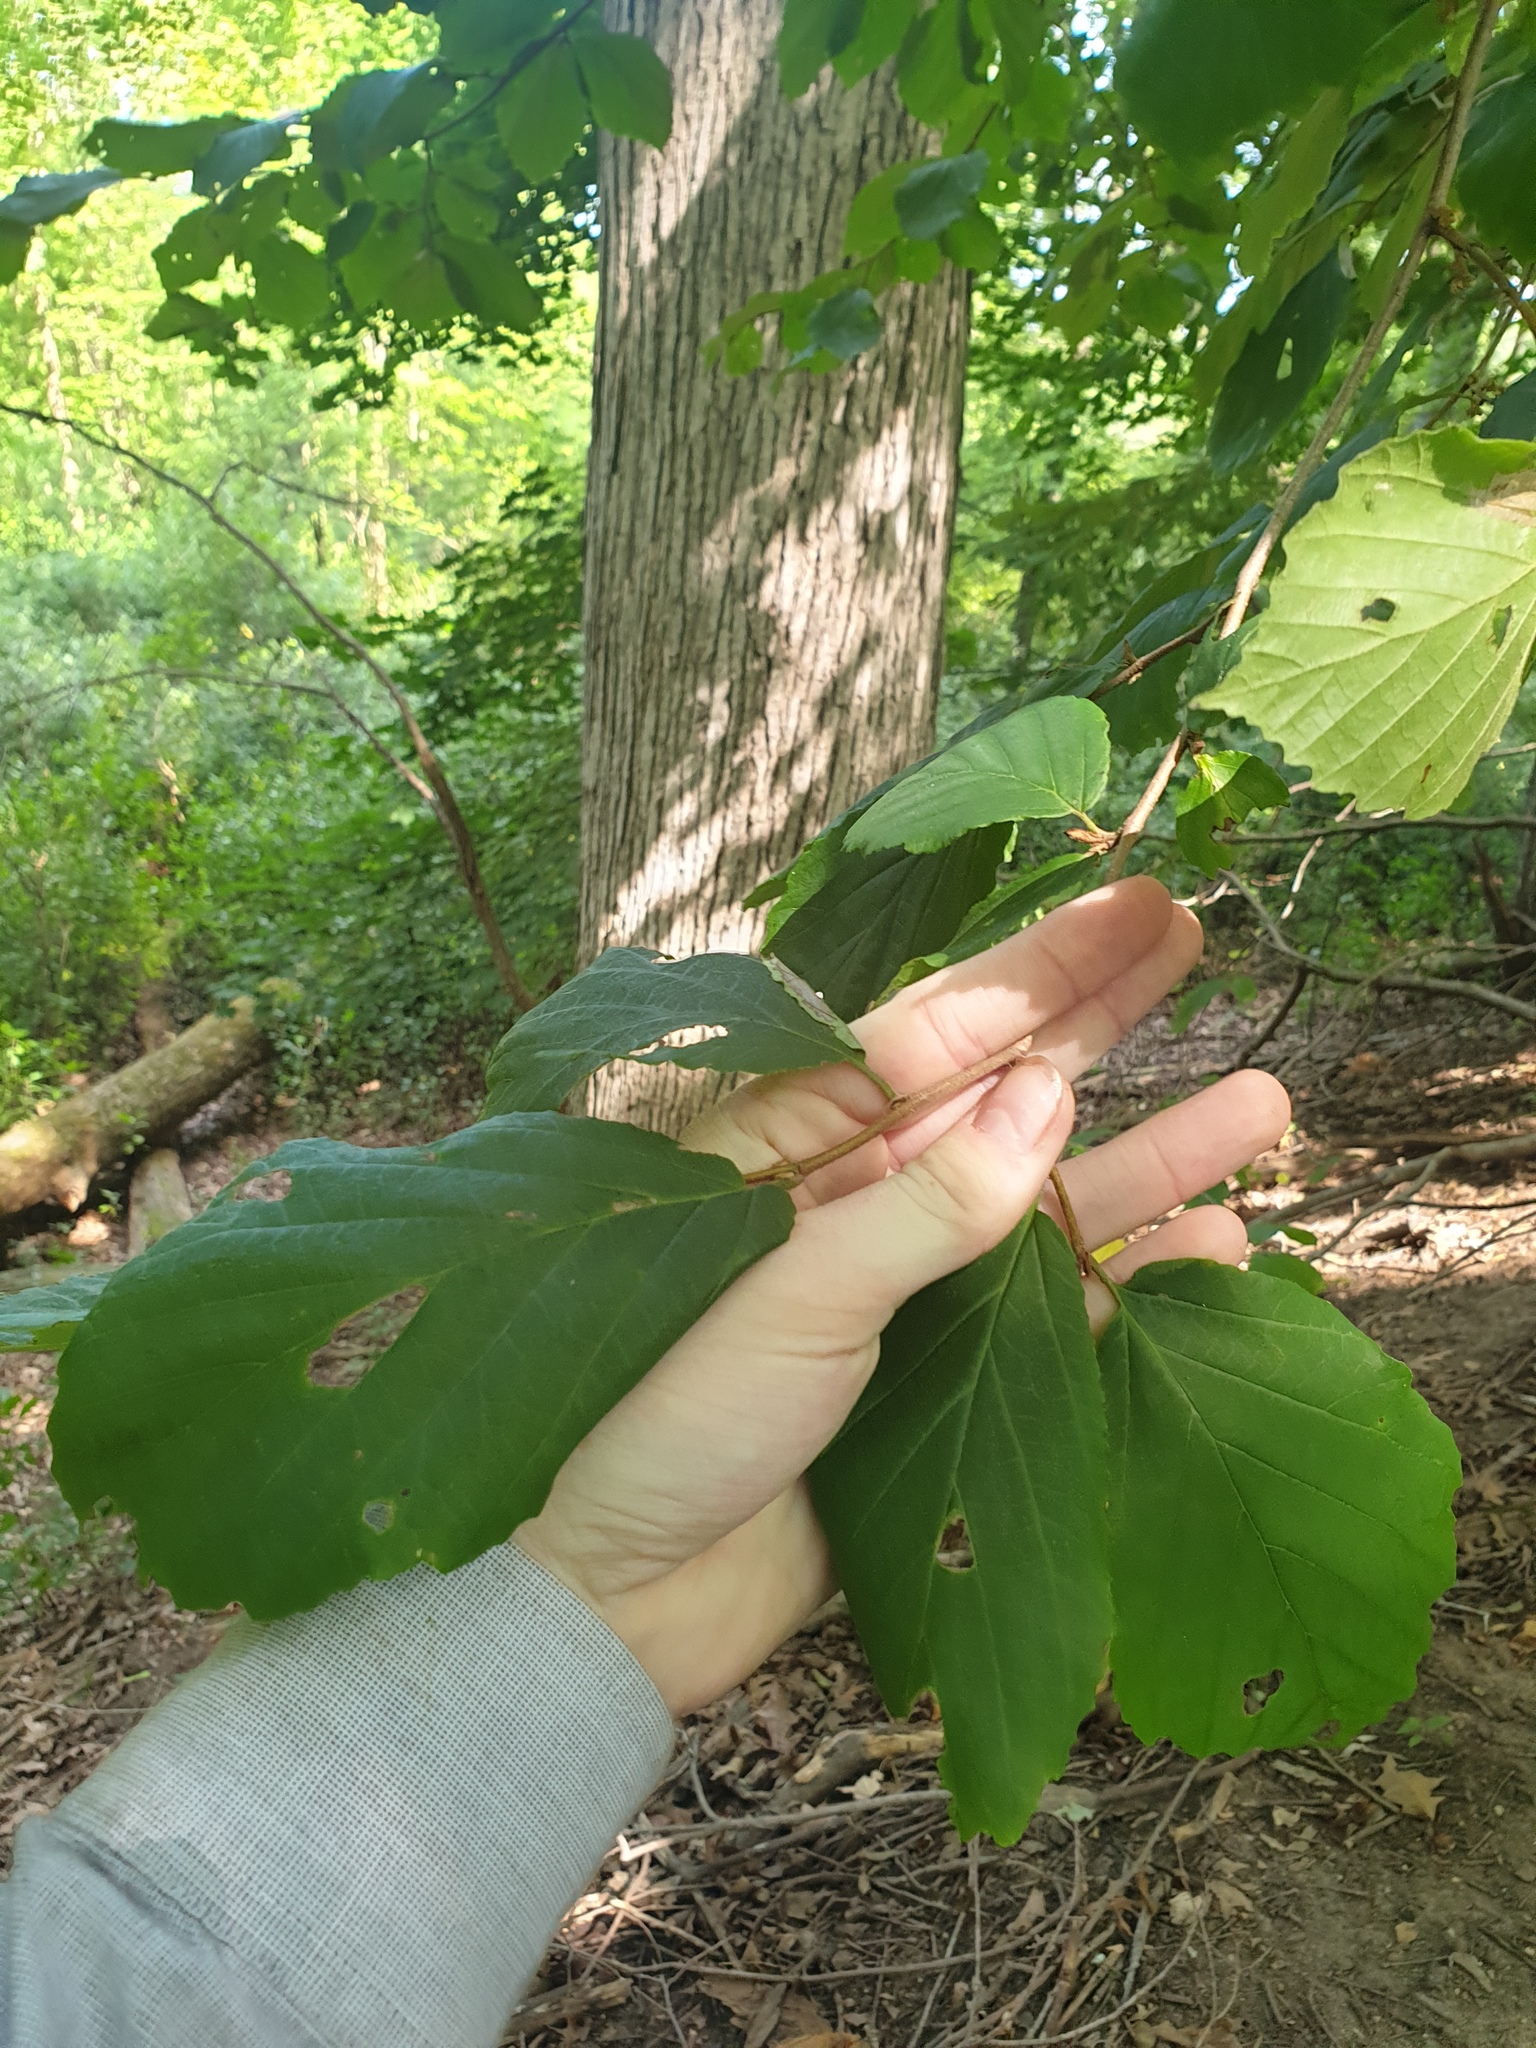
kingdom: Plantae
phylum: Tracheophyta
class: Magnoliopsida
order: Saxifragales
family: Hamamelidaceae
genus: Hamamelis
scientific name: Hamamelis virginiana
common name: Witch-hazel
